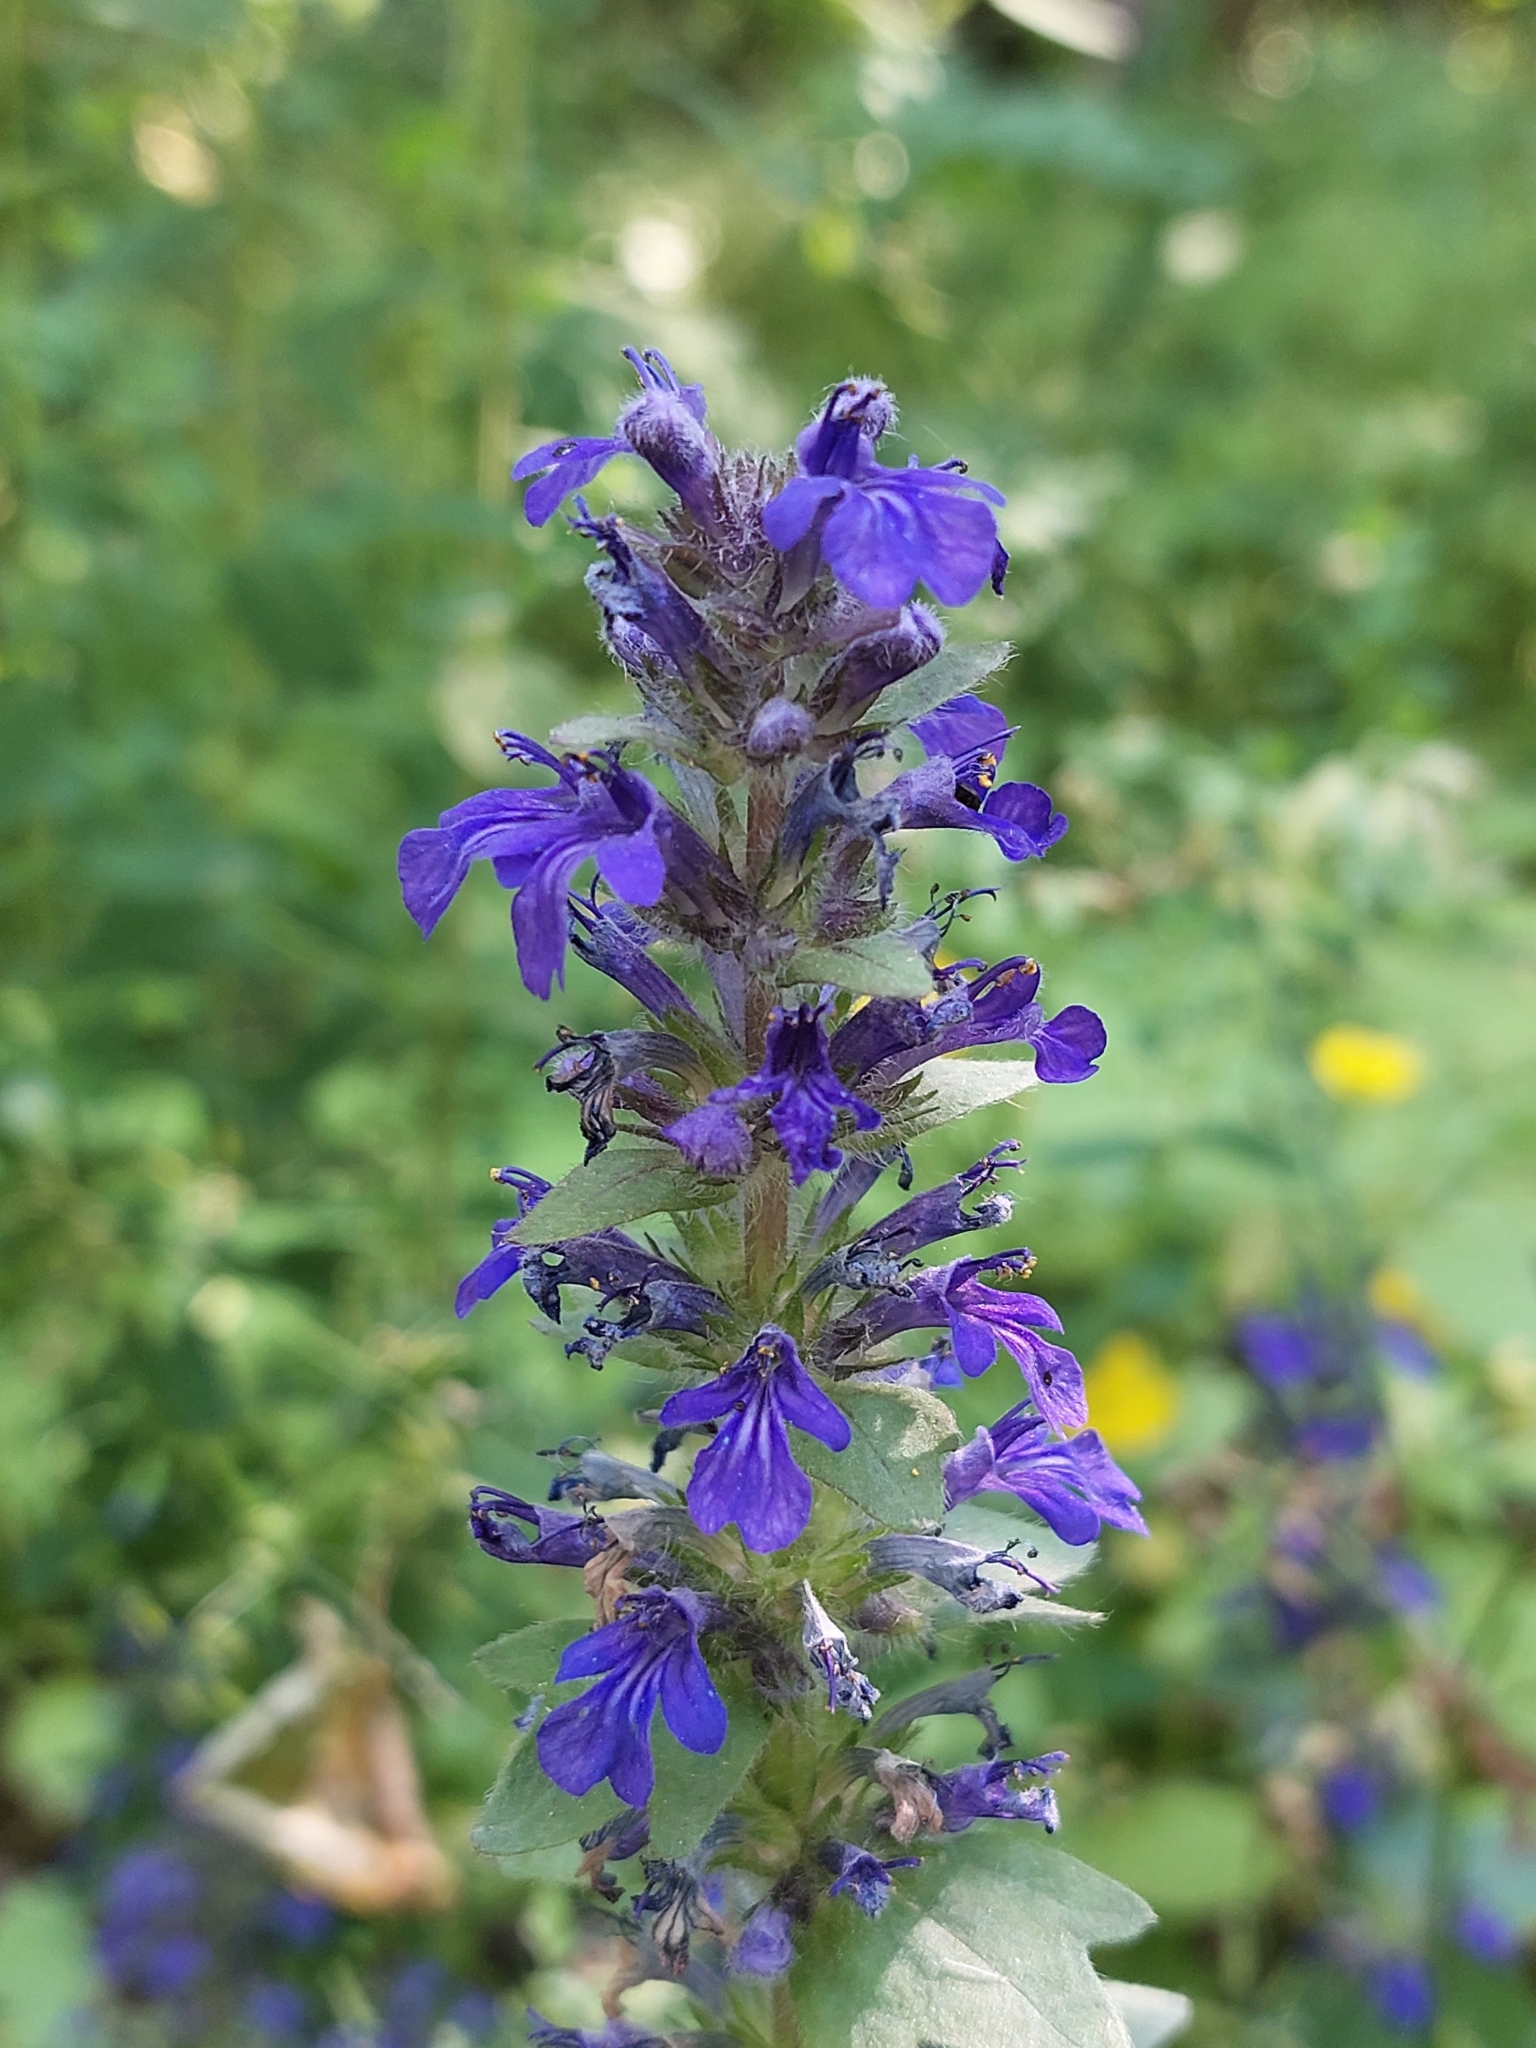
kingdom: Plantae
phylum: Tracheophyta
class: Magnoliopsida
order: Lamiales
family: Lamiaceae
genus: Ajuga
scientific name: Ajuga genevensis
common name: Blue bugle
